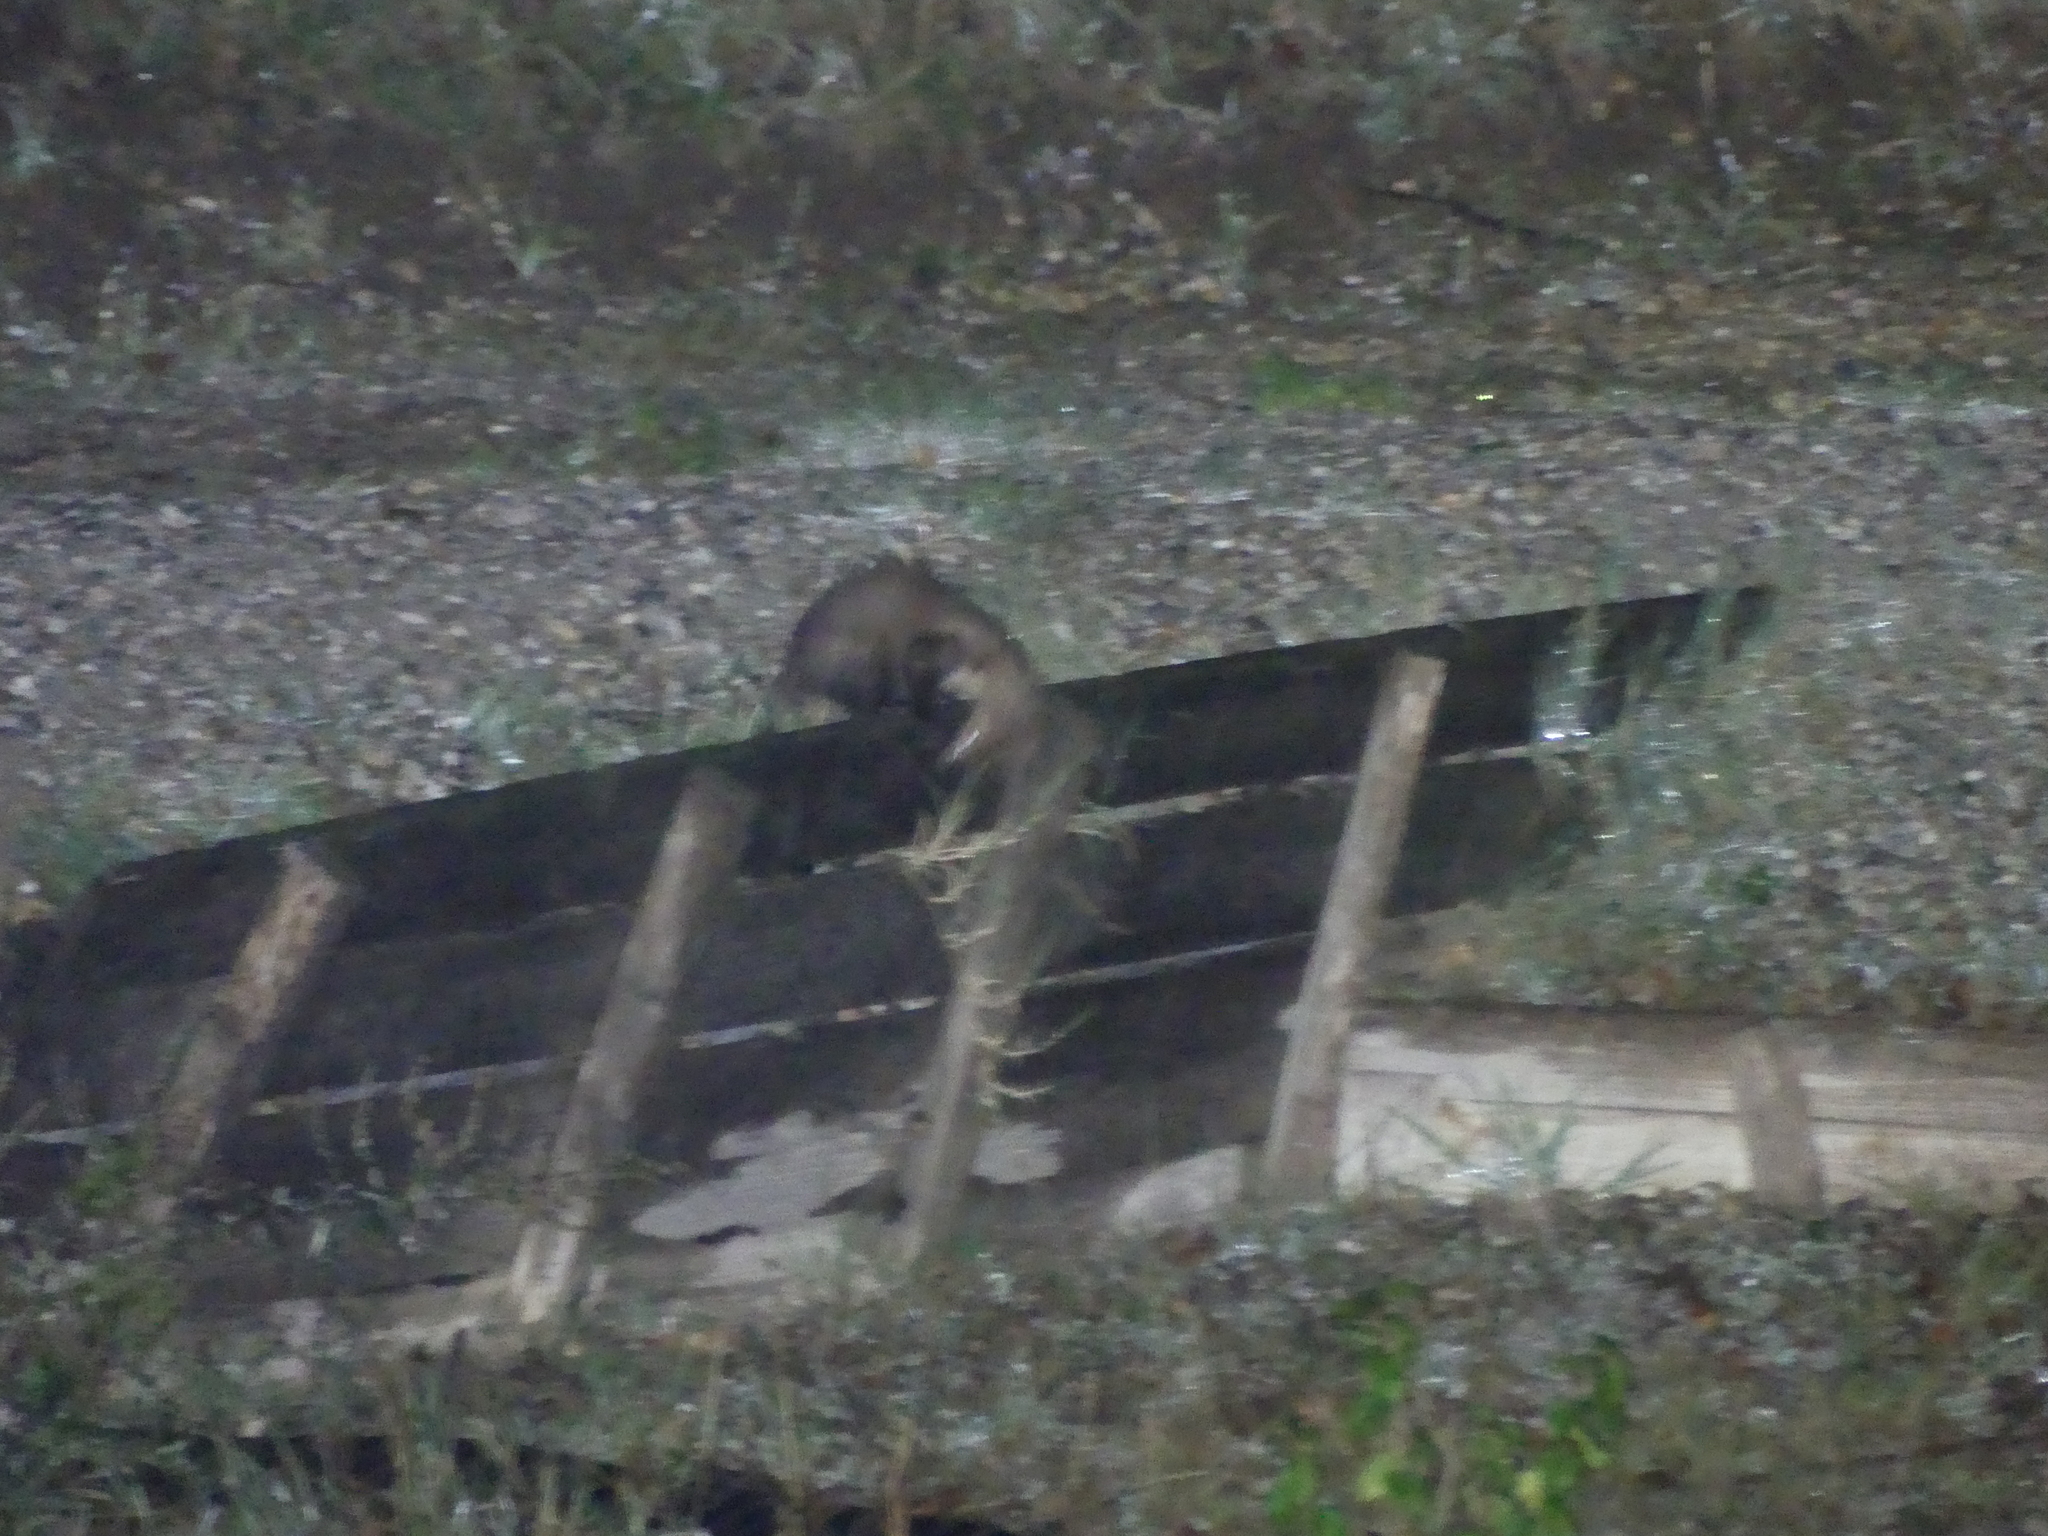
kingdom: Animalia
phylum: Chordata
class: Mammalia
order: Carnivora
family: Mustelidae
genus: Martes
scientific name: Martes foina
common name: Beech marten
